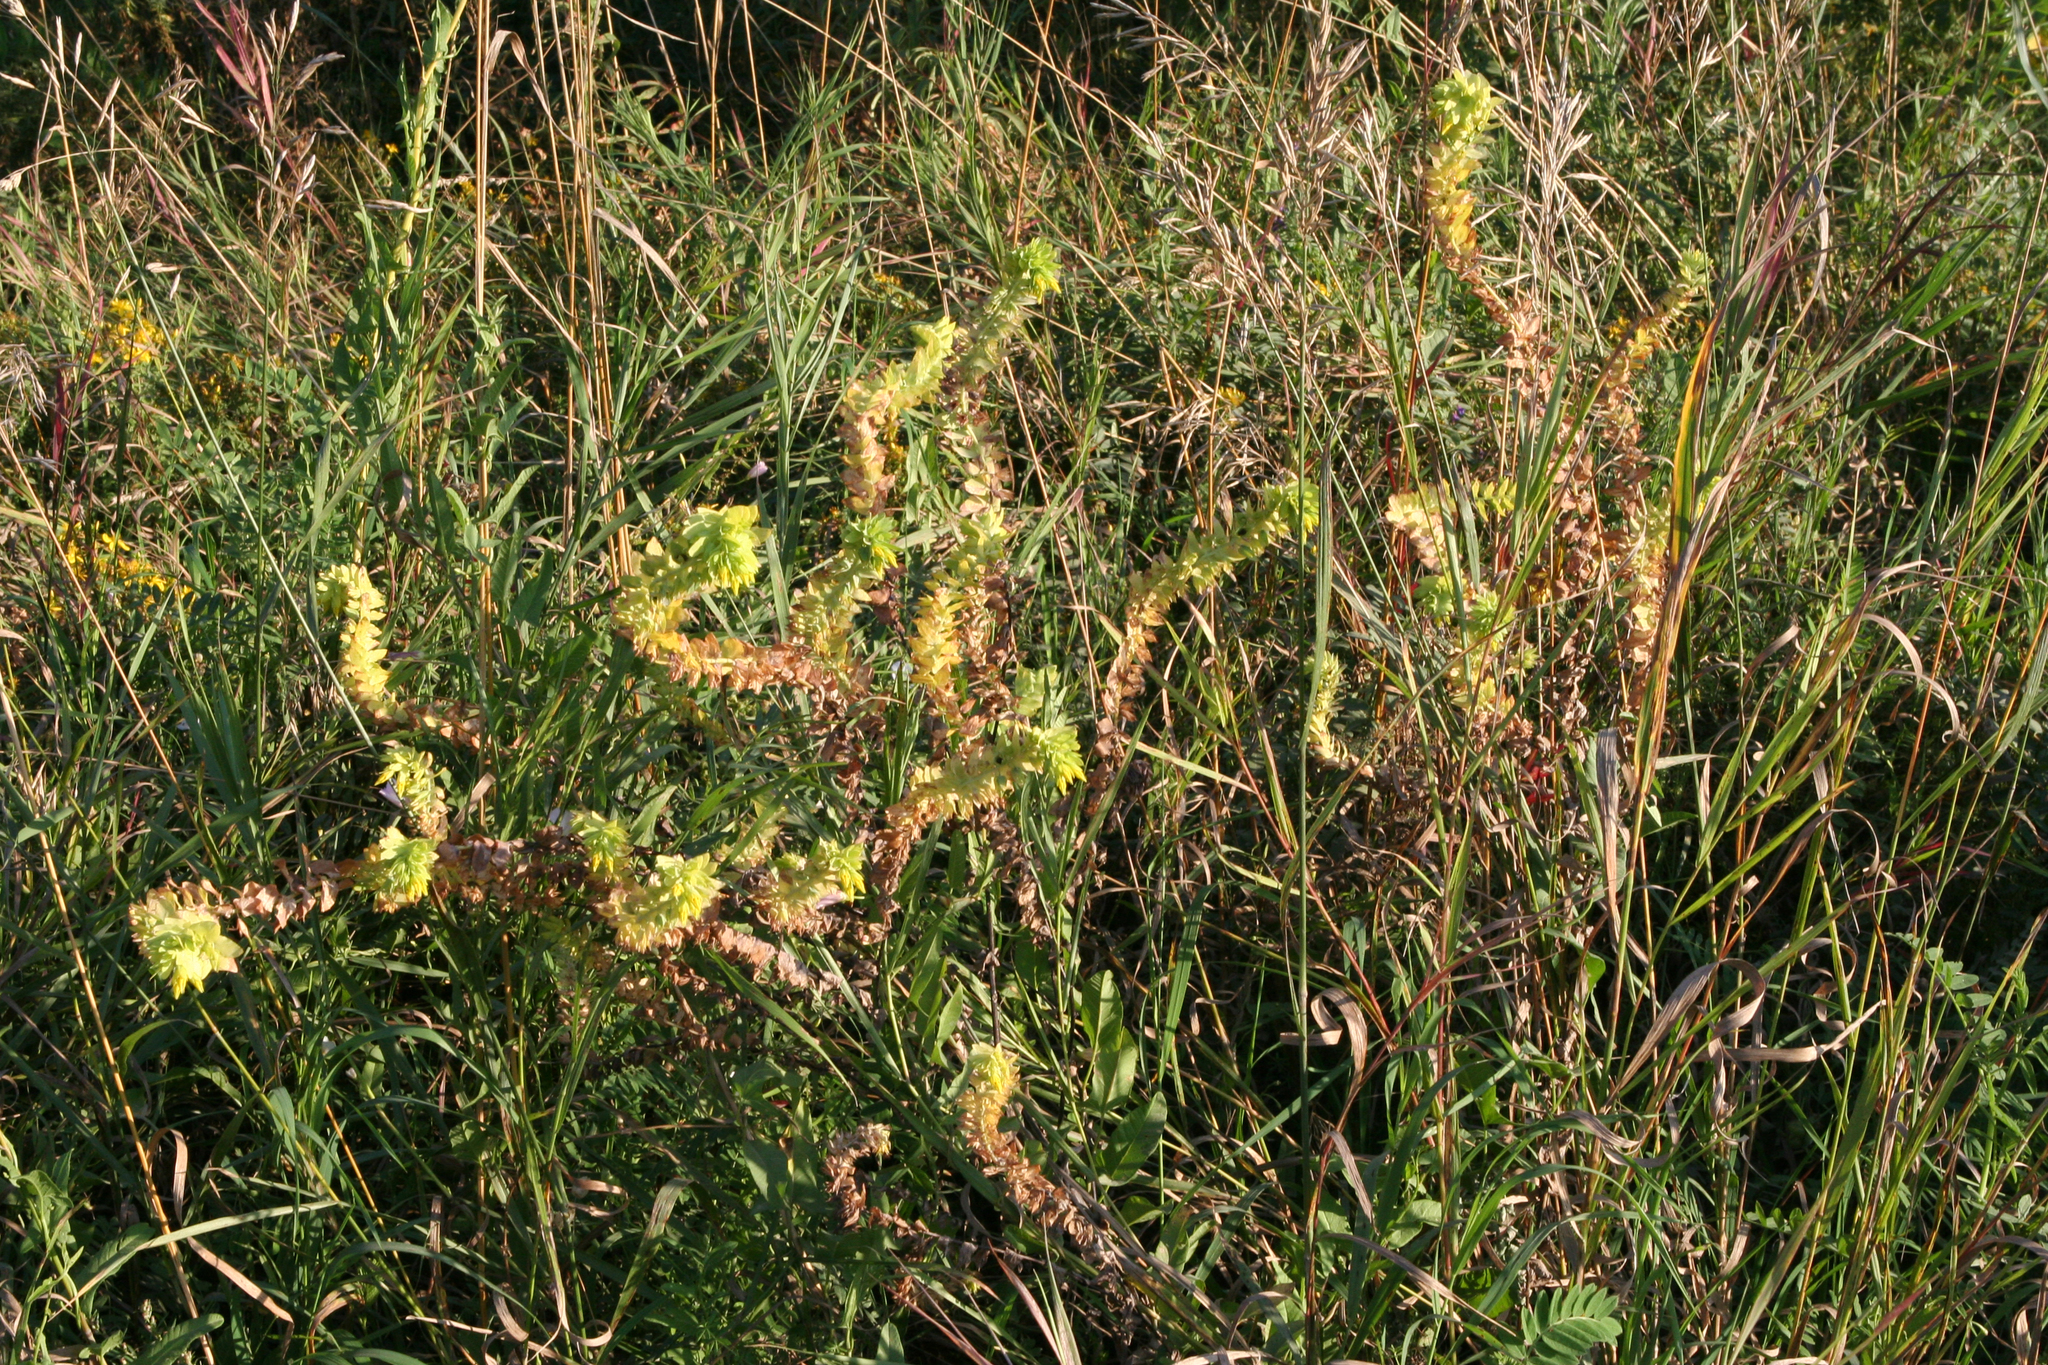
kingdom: Plantae
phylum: Tracheophyta
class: Magnoliopsida
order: Boraginales
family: Boraginaceae
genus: Cerinthe
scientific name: Cerinthe minor
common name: Lesser honeywort
